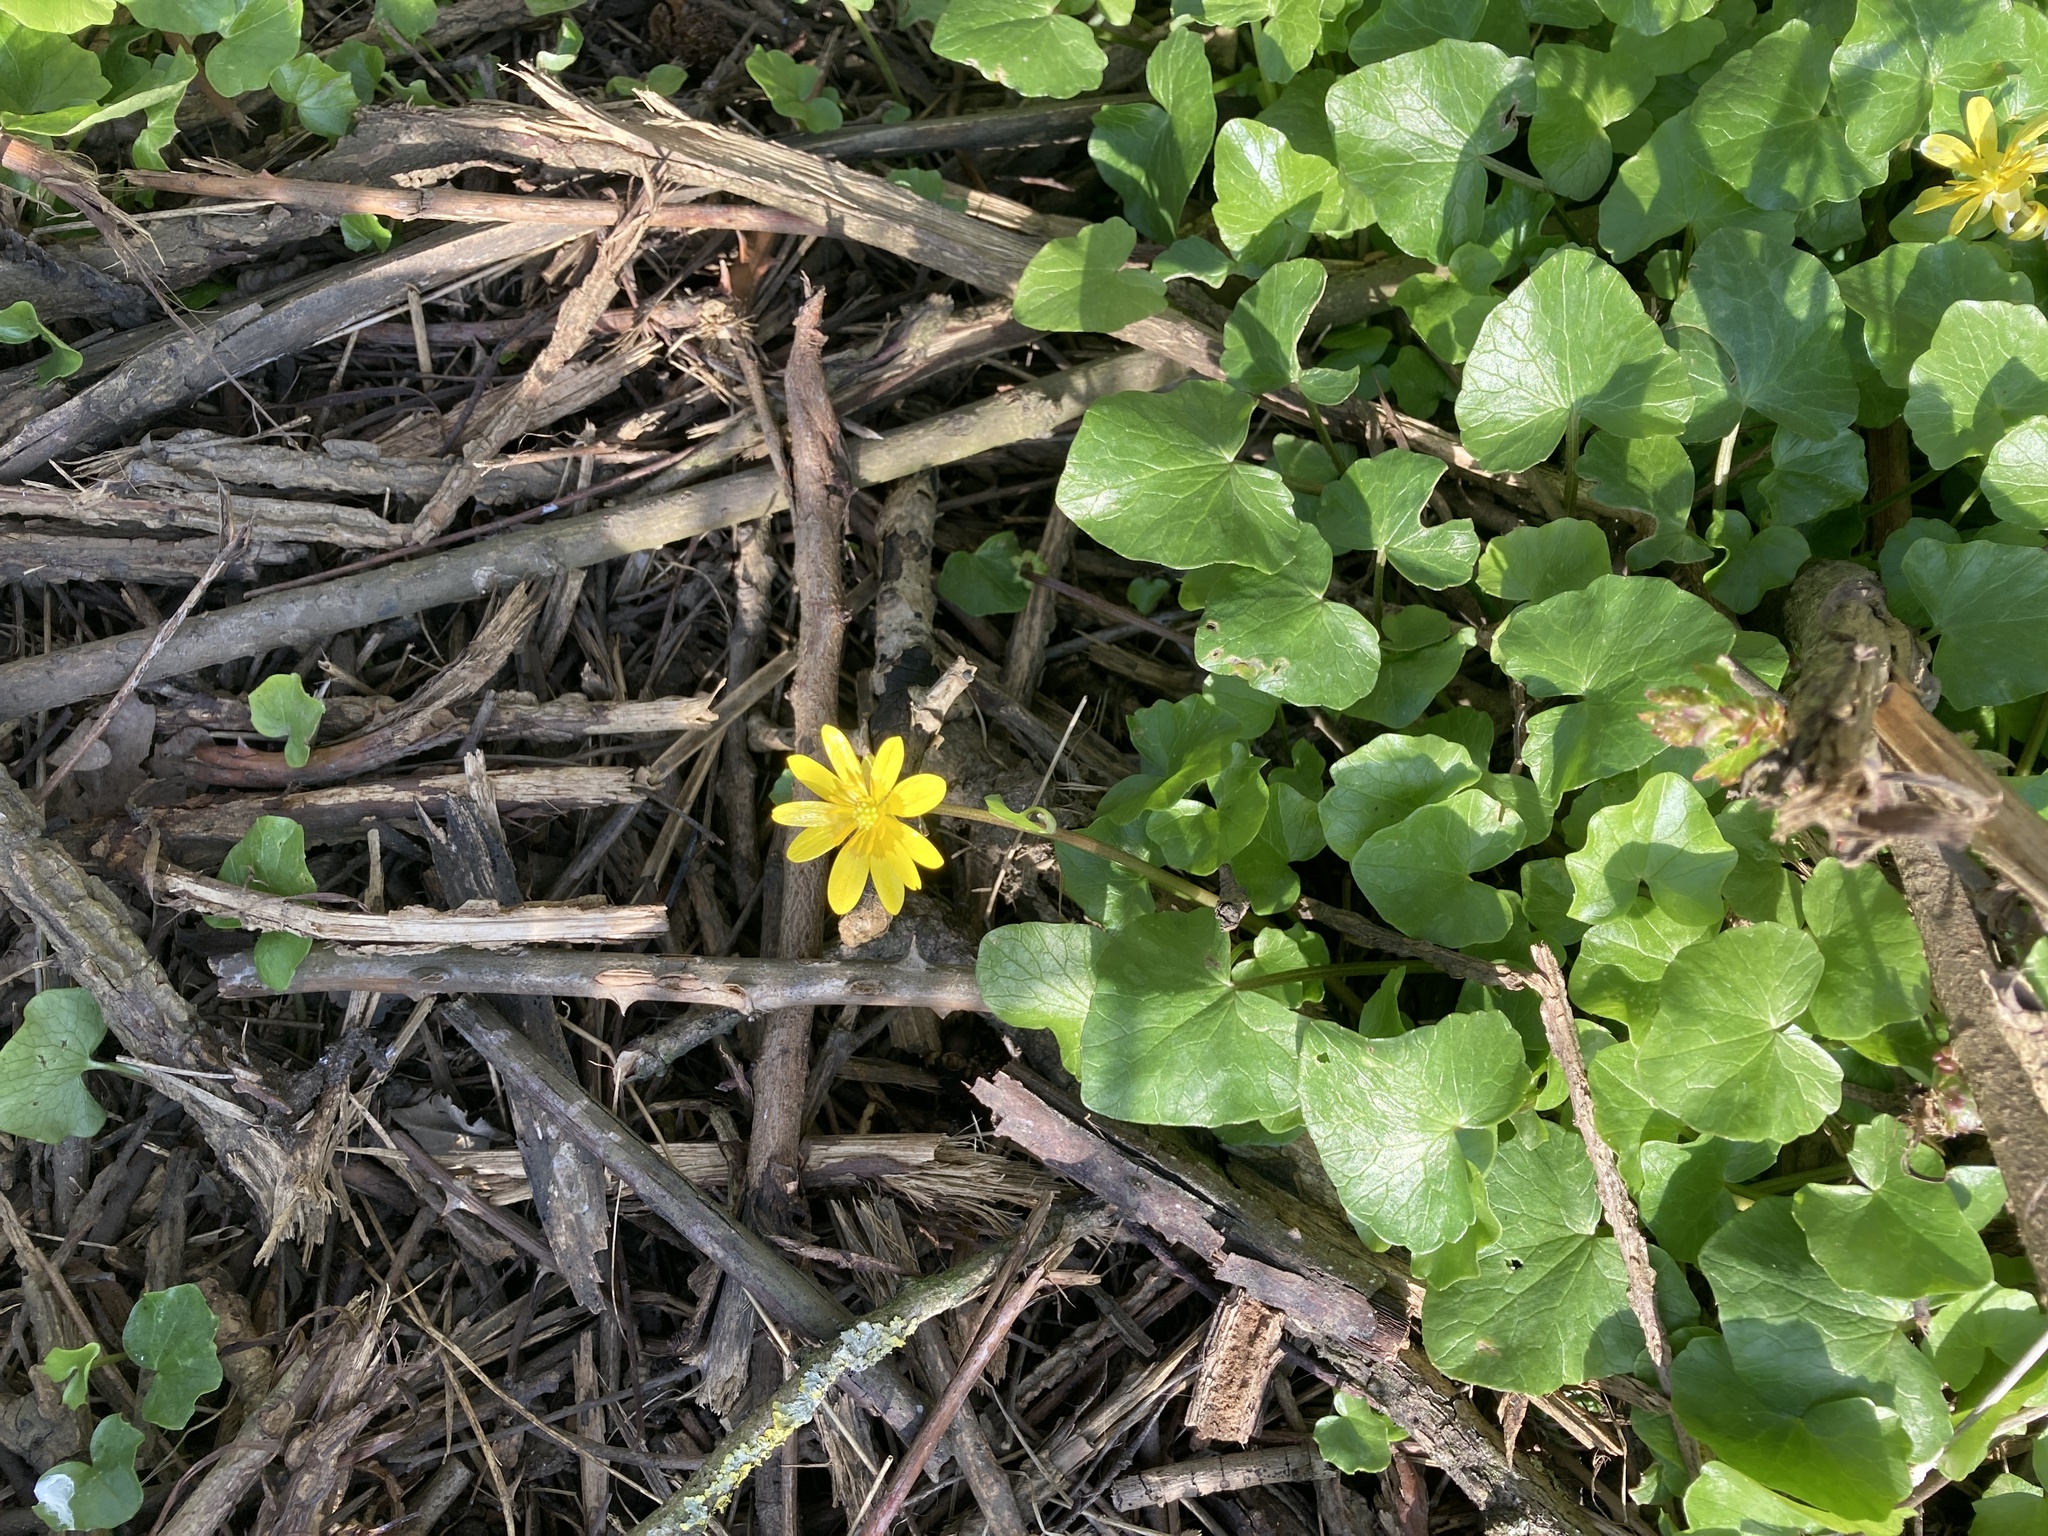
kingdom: Plantae
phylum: Tracheophyta
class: Magnoliopsida
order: Ranunculales
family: Ranunculaceae
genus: Ficaria
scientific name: Ficaria verna
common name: Lesser celandine
